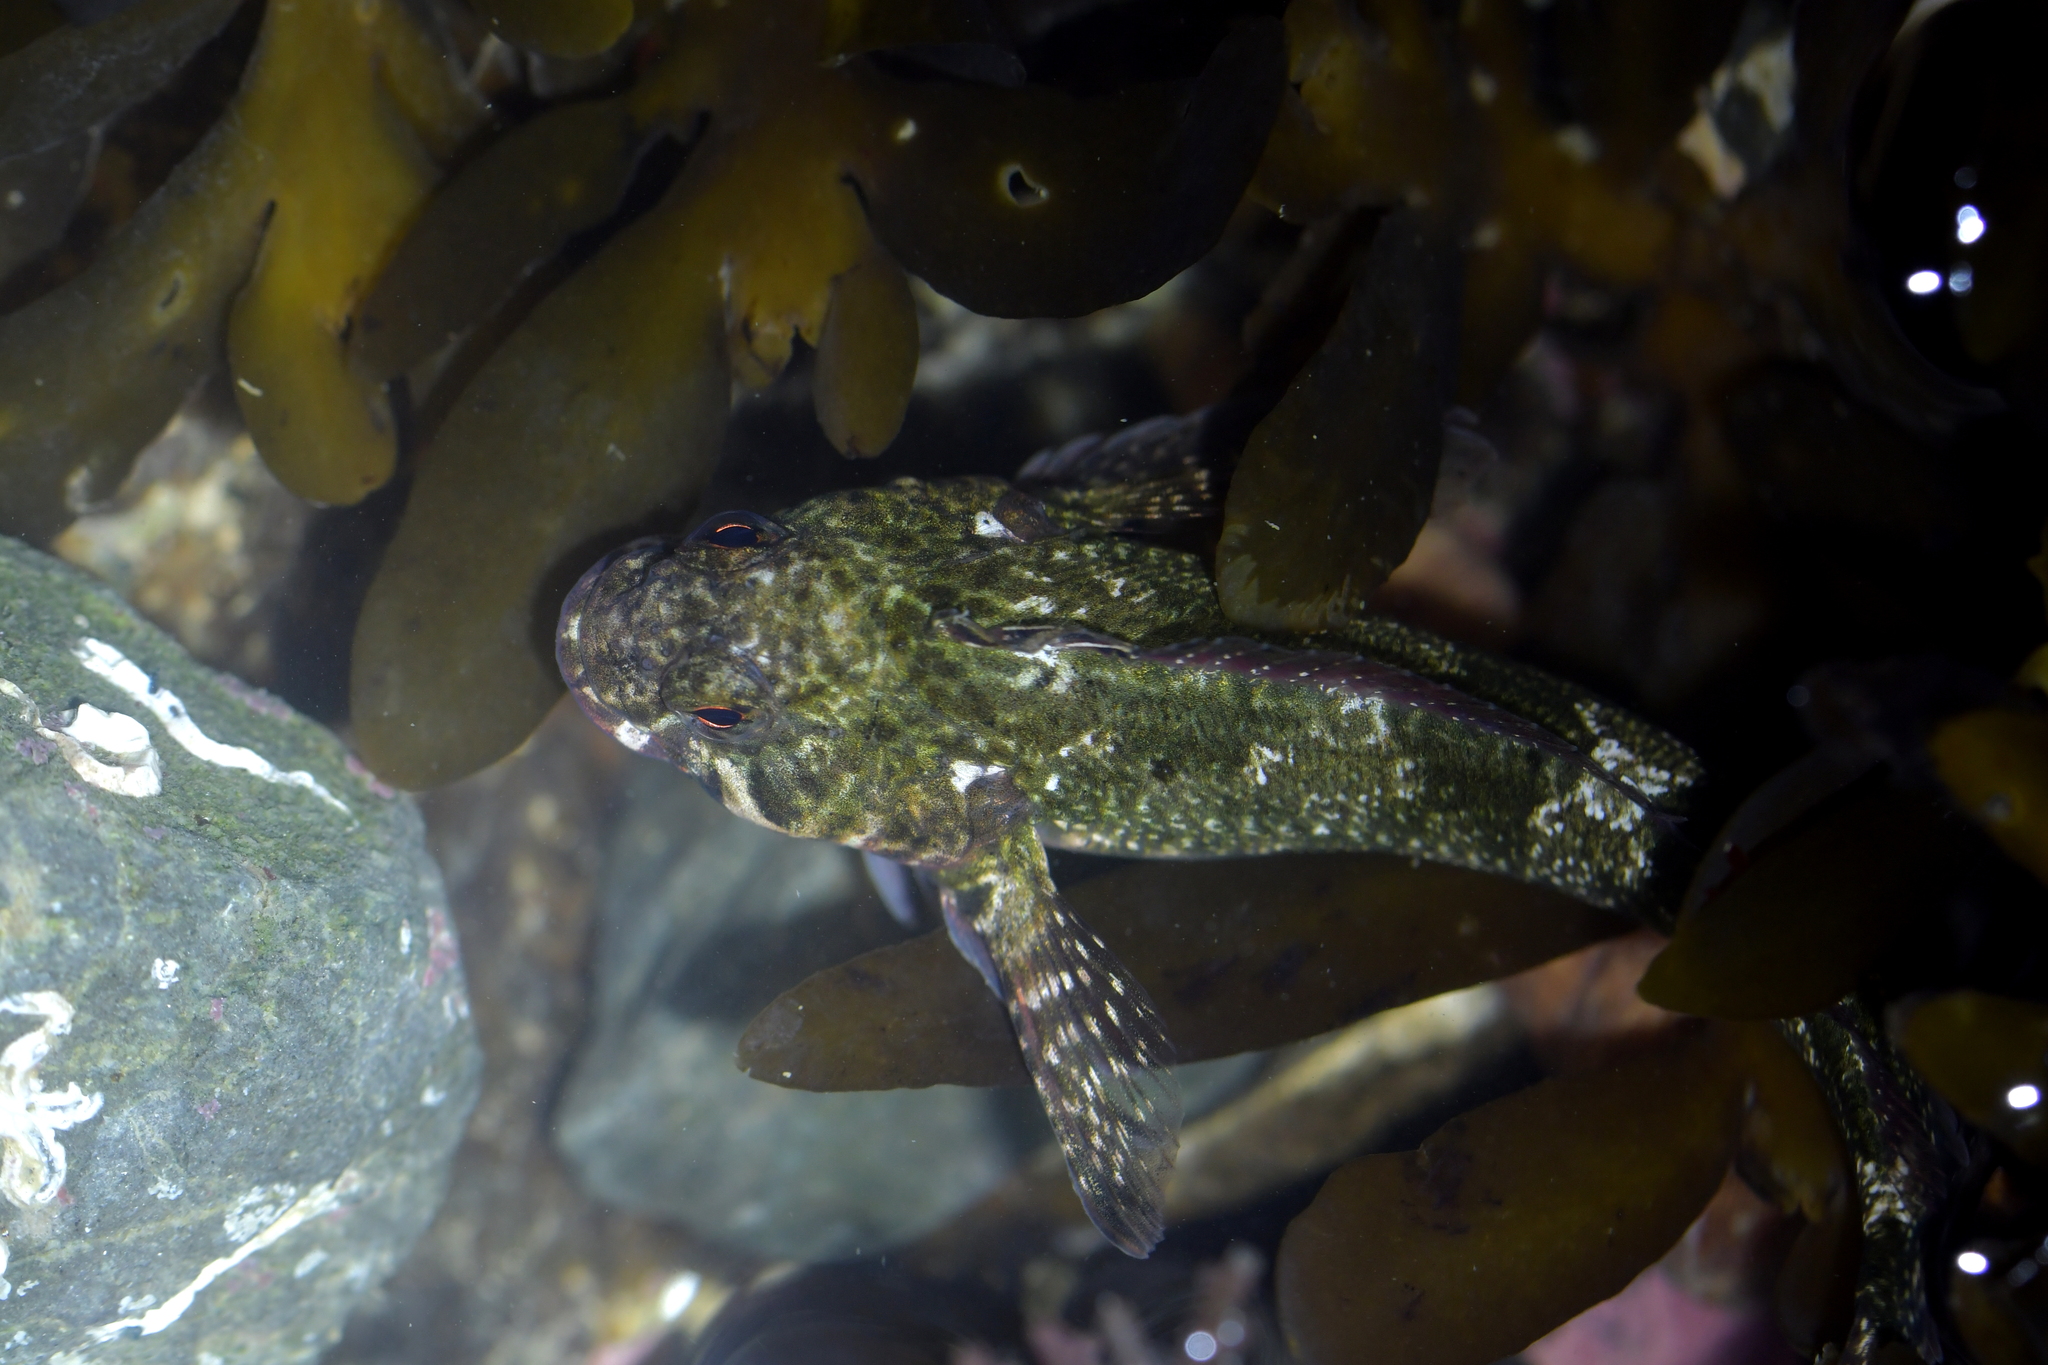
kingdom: Animalia
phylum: Chordata
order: Perciformes
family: Tripterygiidae
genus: Bellapiscis
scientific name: Bellapiscis medius
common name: Twister
